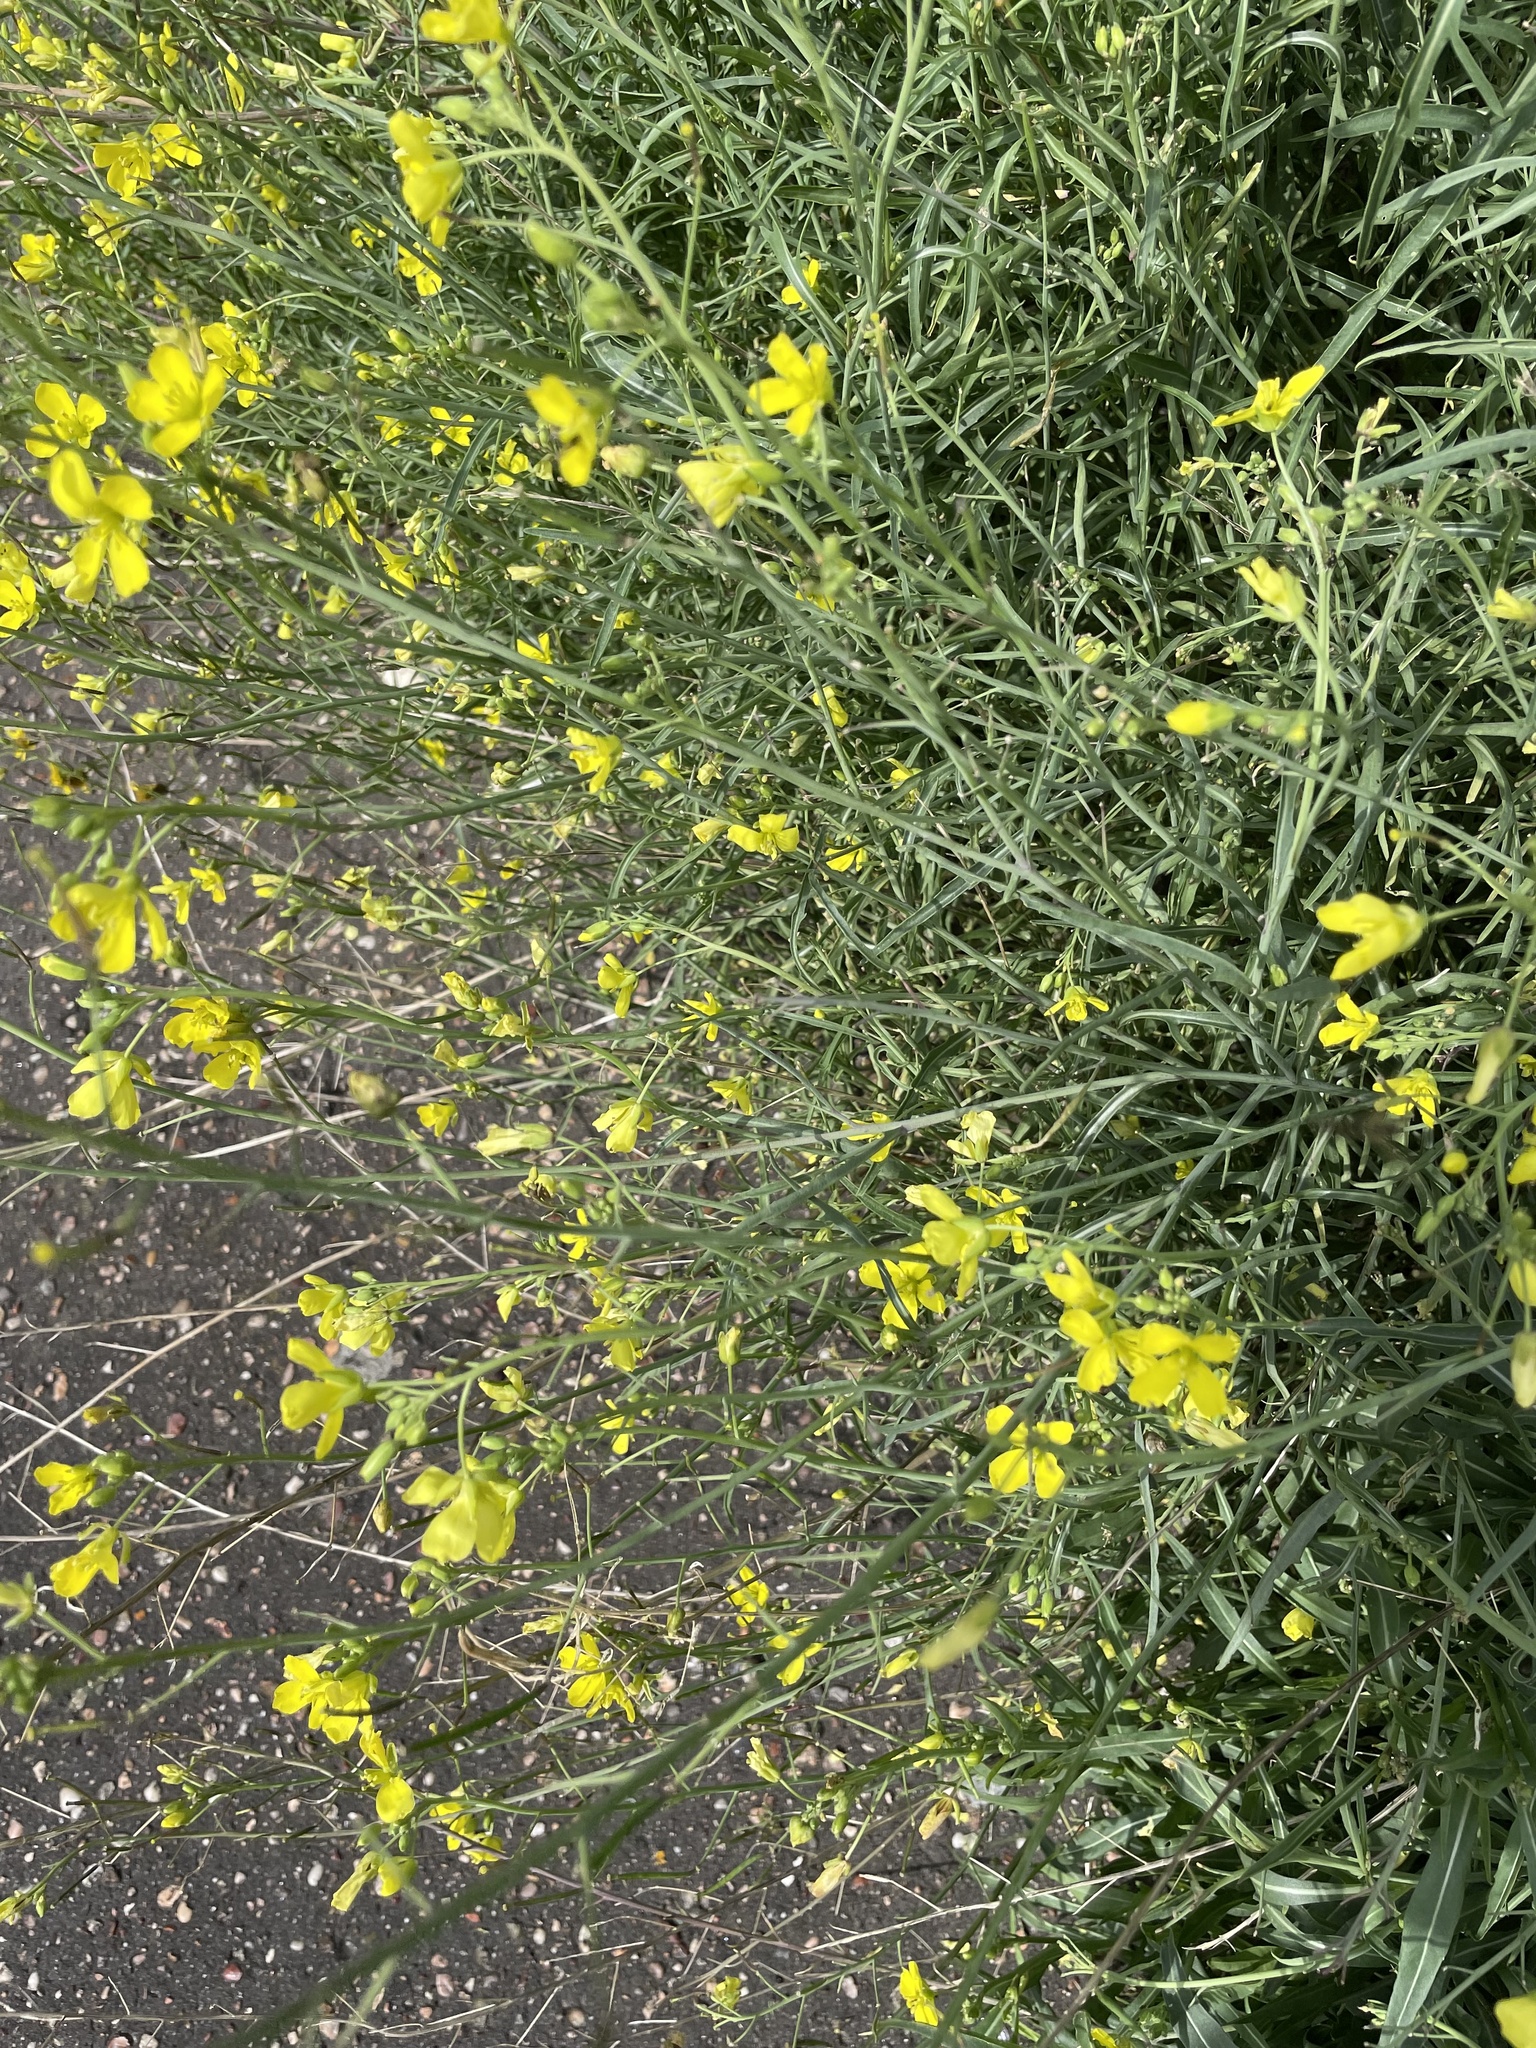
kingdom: Plantae
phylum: Tracheophyta
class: Magnoliopsida
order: Brassicales
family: Brassicaceae
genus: Diplotaxis
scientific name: Diplotaxis tenuifolia
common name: Perennial wall-rocket
